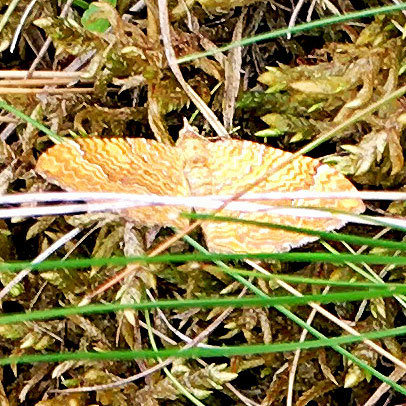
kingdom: Animalia
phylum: Arthropoda
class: Insecta
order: Lepidoptera
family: Geometridae
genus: Camptogramma
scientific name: Camptogramma bilineata
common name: Yellow shell
